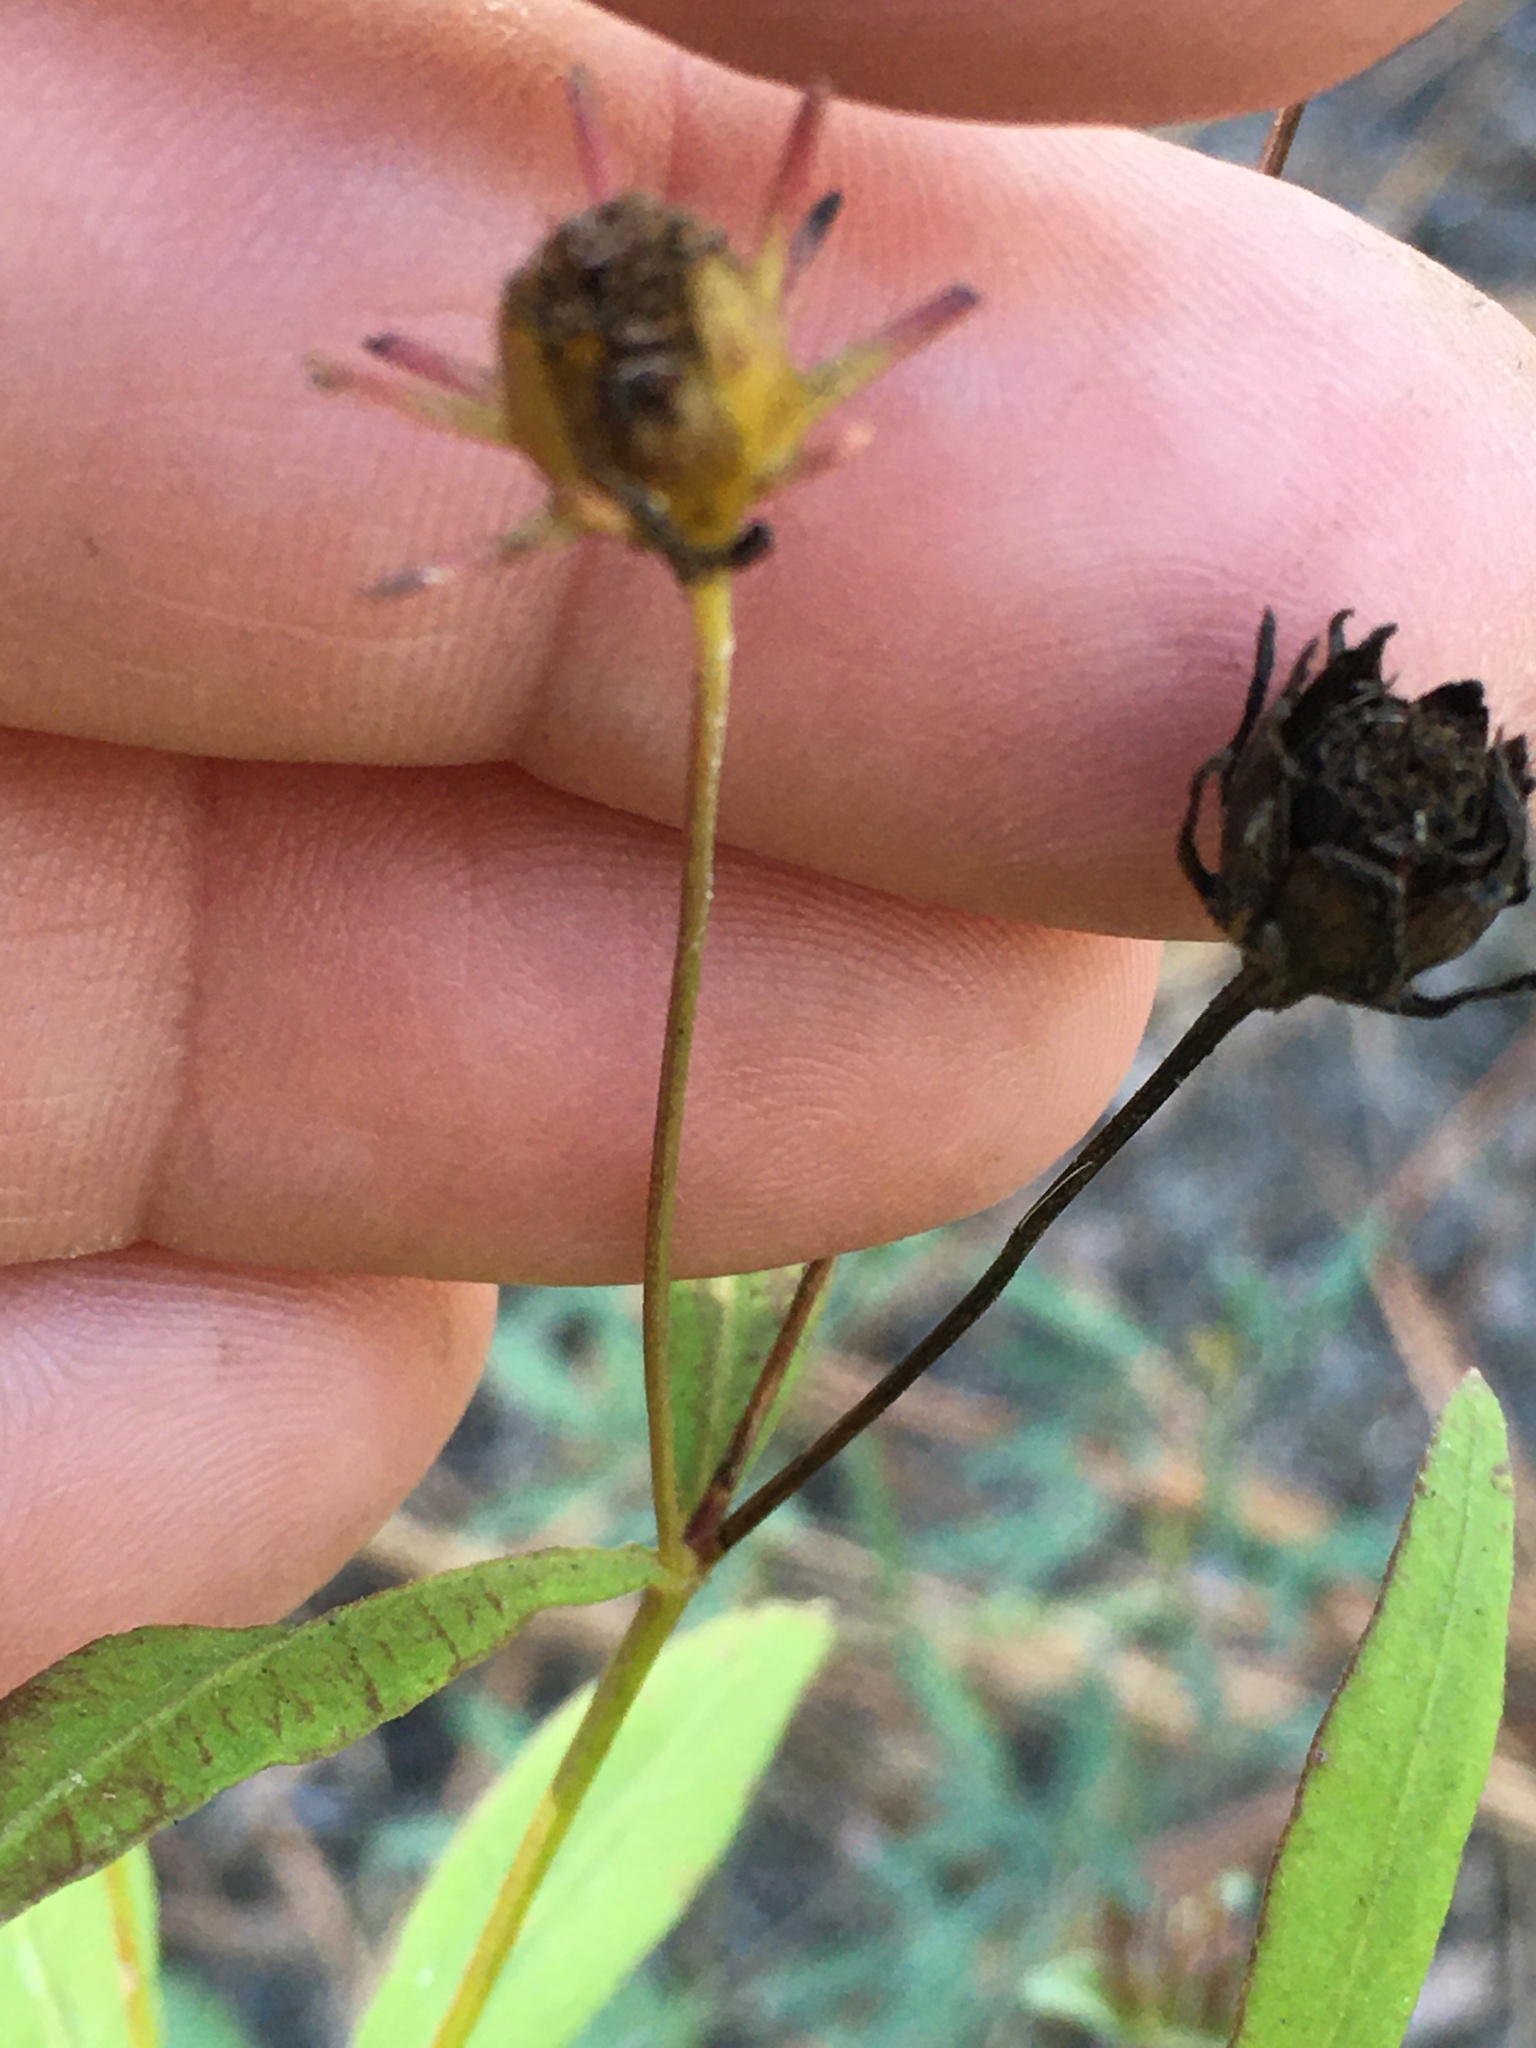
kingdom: Plantae
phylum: Tracheophyta
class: Magnoliopsida
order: Asterales
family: Asteraceae
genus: Coreopsis
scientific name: Coreopsis major
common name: Forest tickseed
